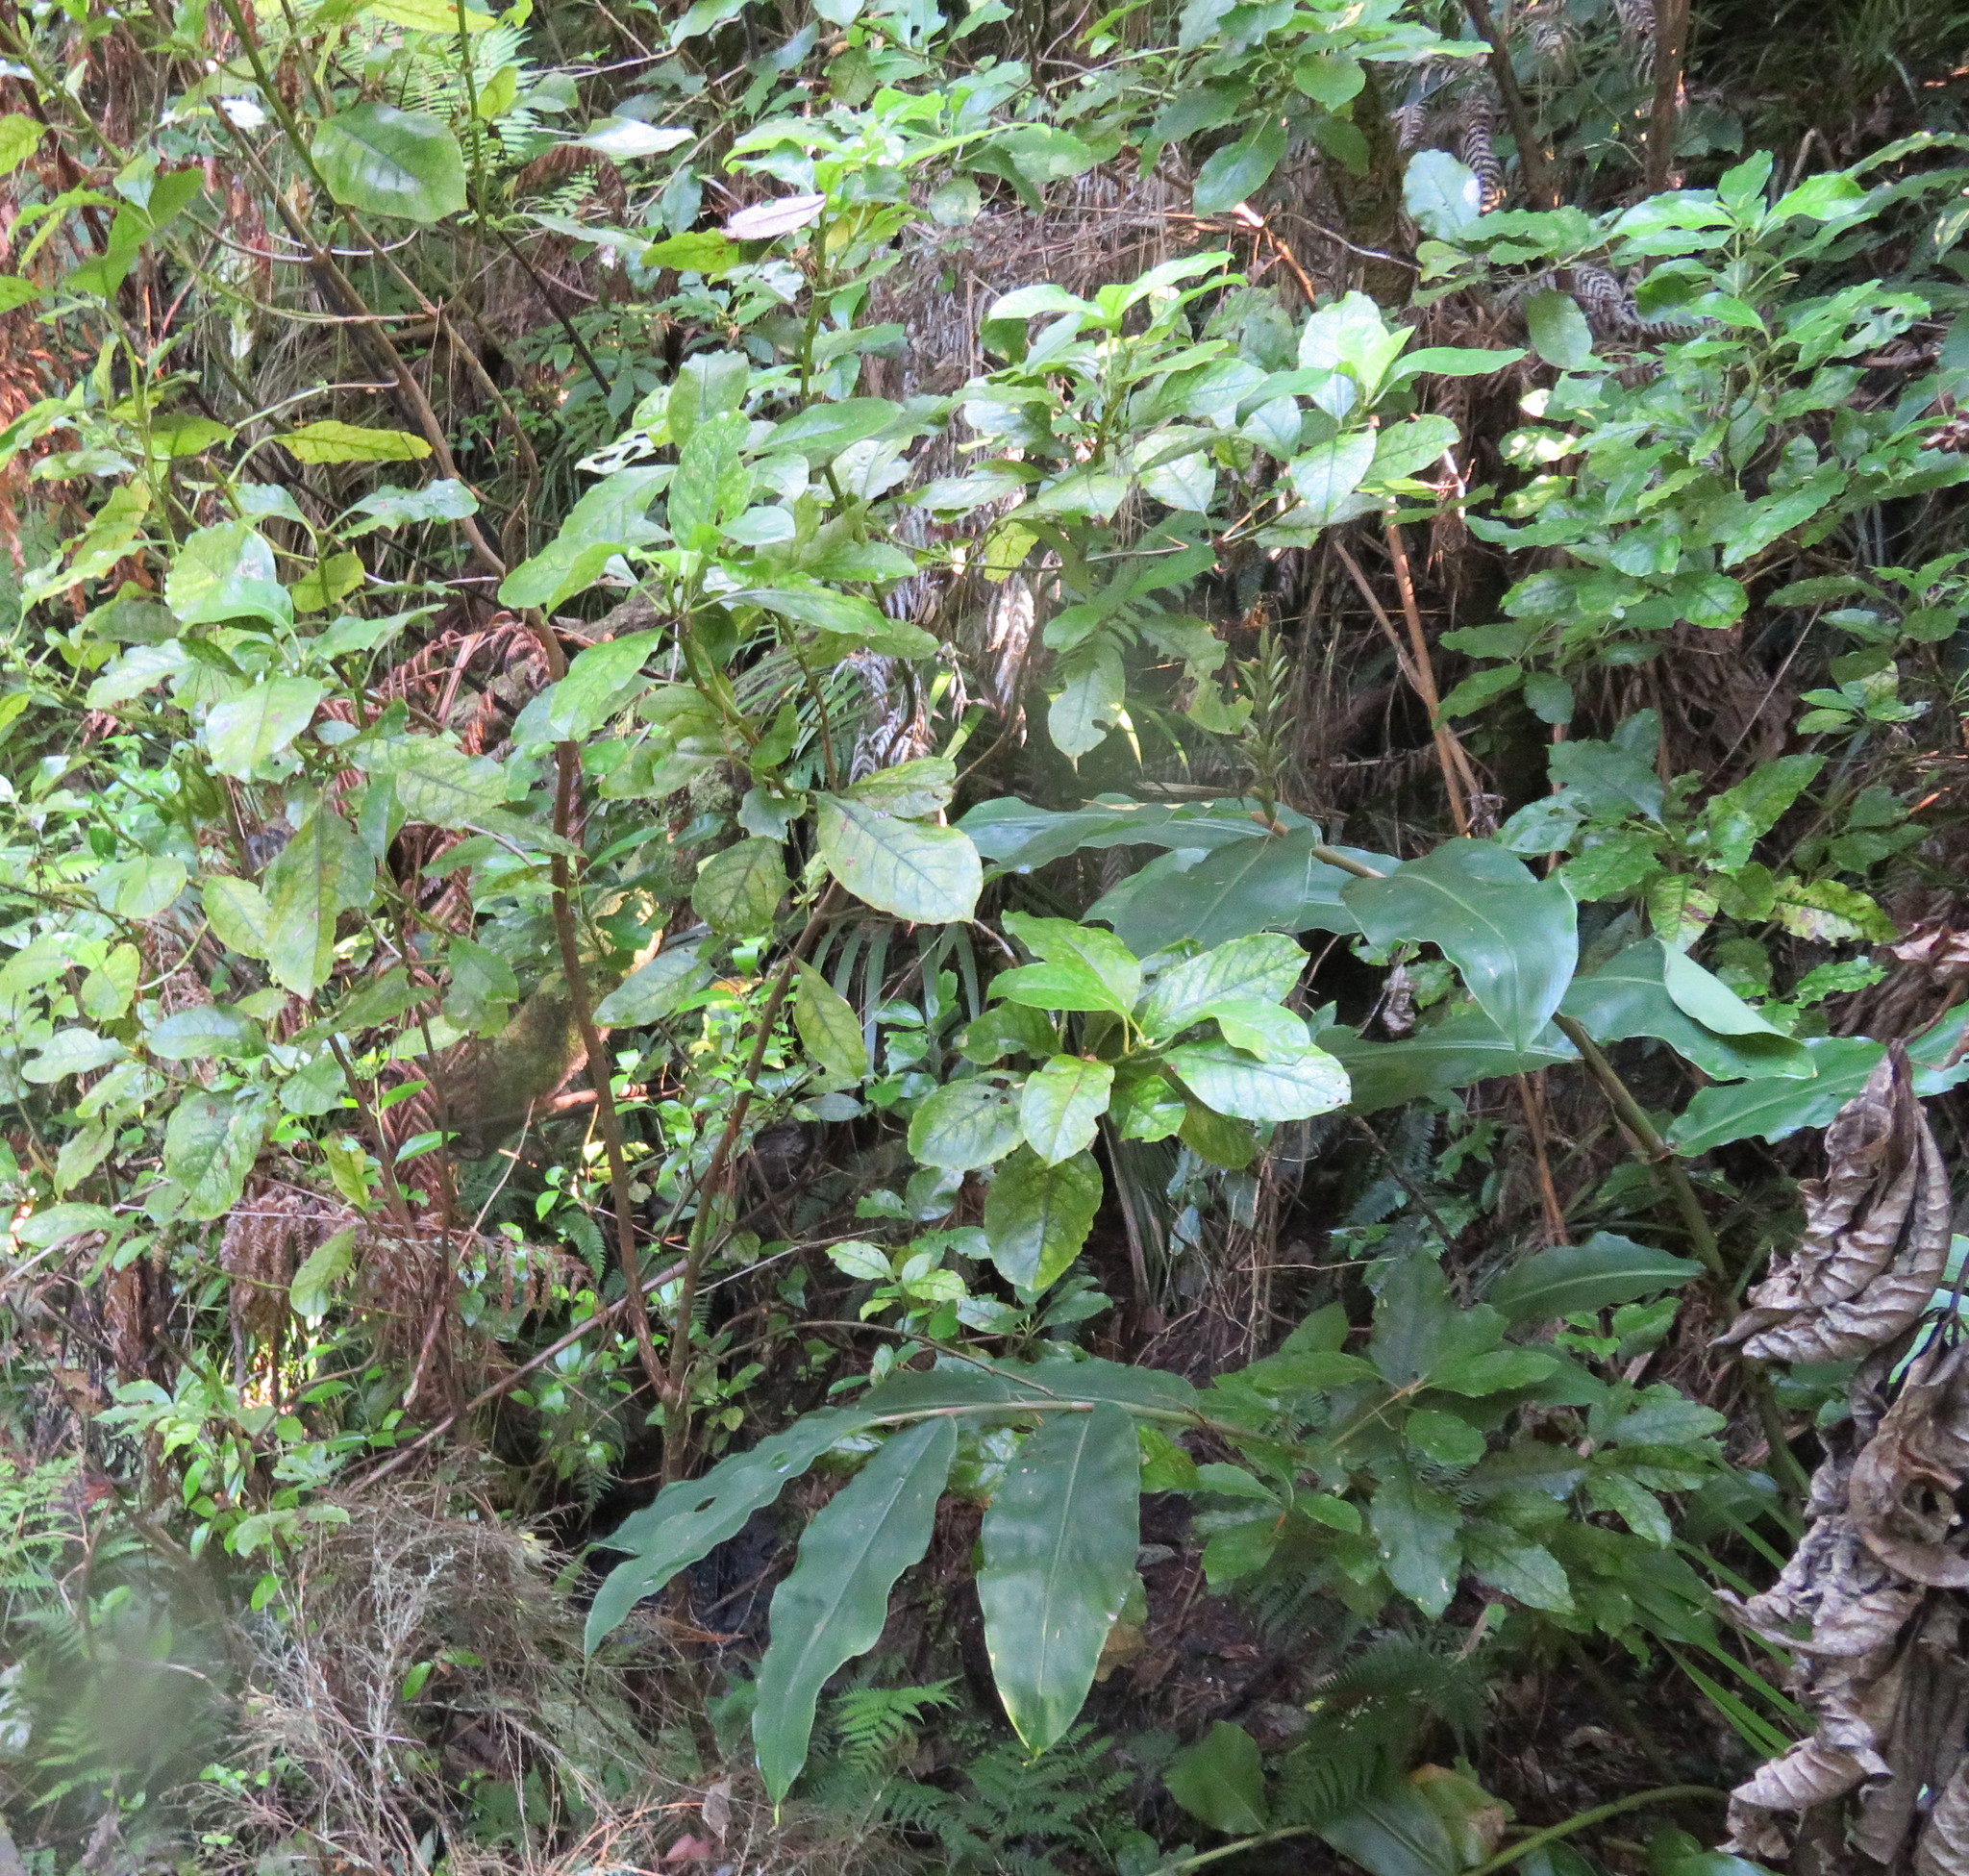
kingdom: Plantae
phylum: Tracheophyta
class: Liliopsida
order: Zingiberales
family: Zingiberaceae
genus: Hedychium
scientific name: Hedychium gardnerianum
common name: Himalayan ginger
